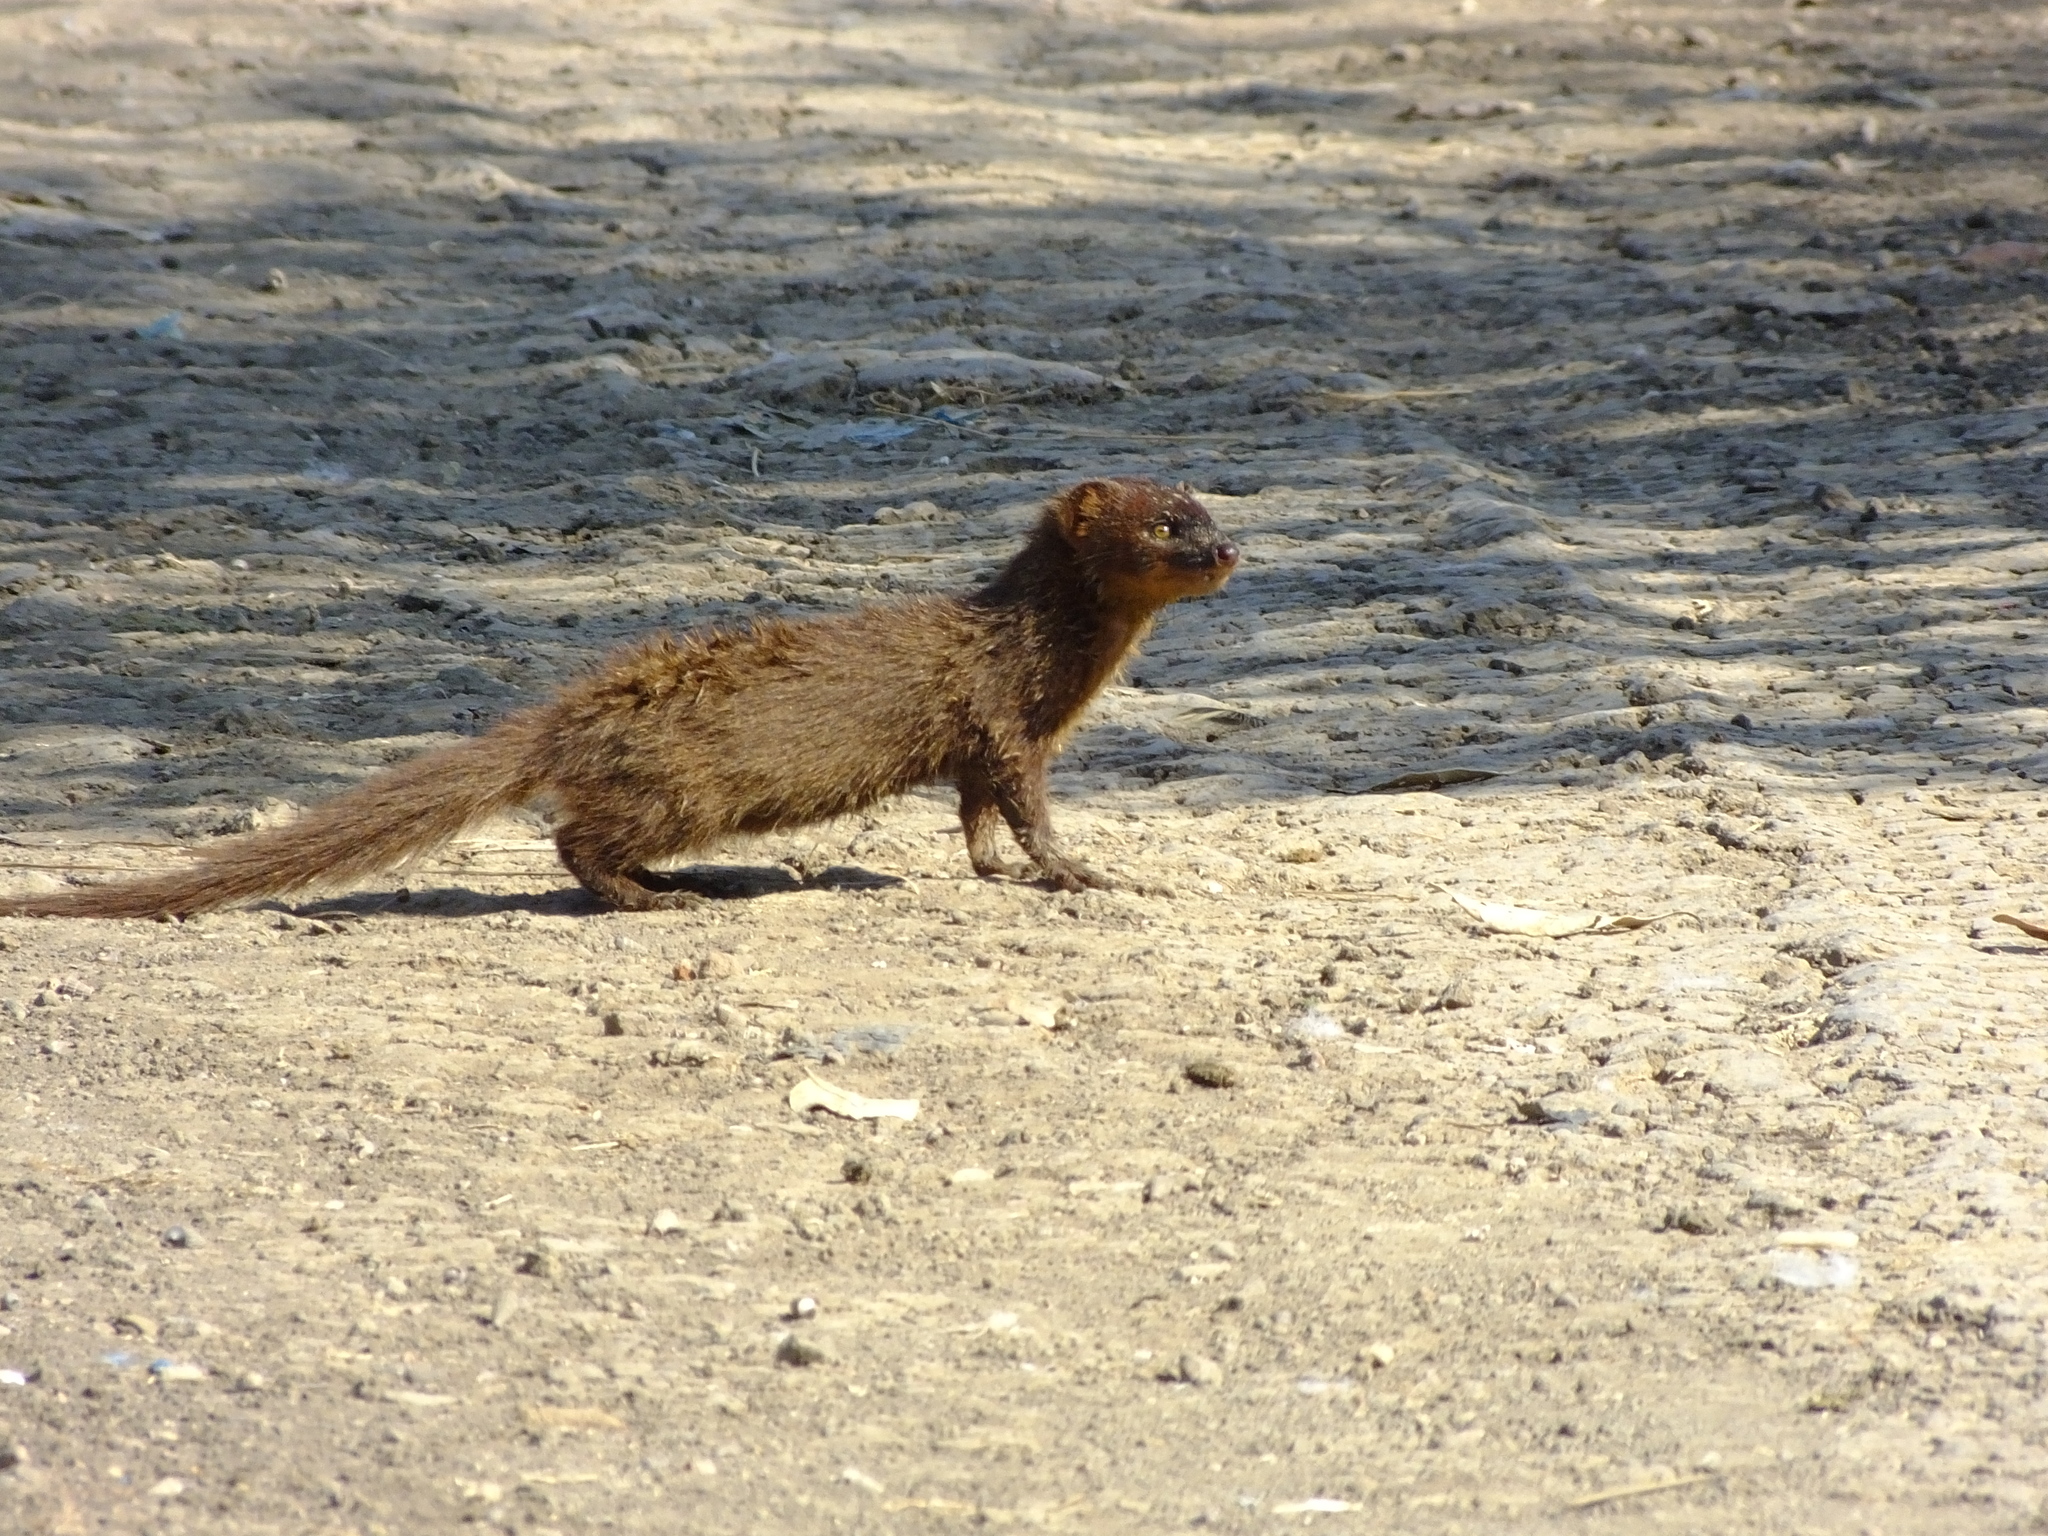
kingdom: Animalia
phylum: Chordata
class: Mammalia
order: Carnivora
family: Herpestidae
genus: Herpestes
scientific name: Herpestes javanicus
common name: Small asian mongoose
